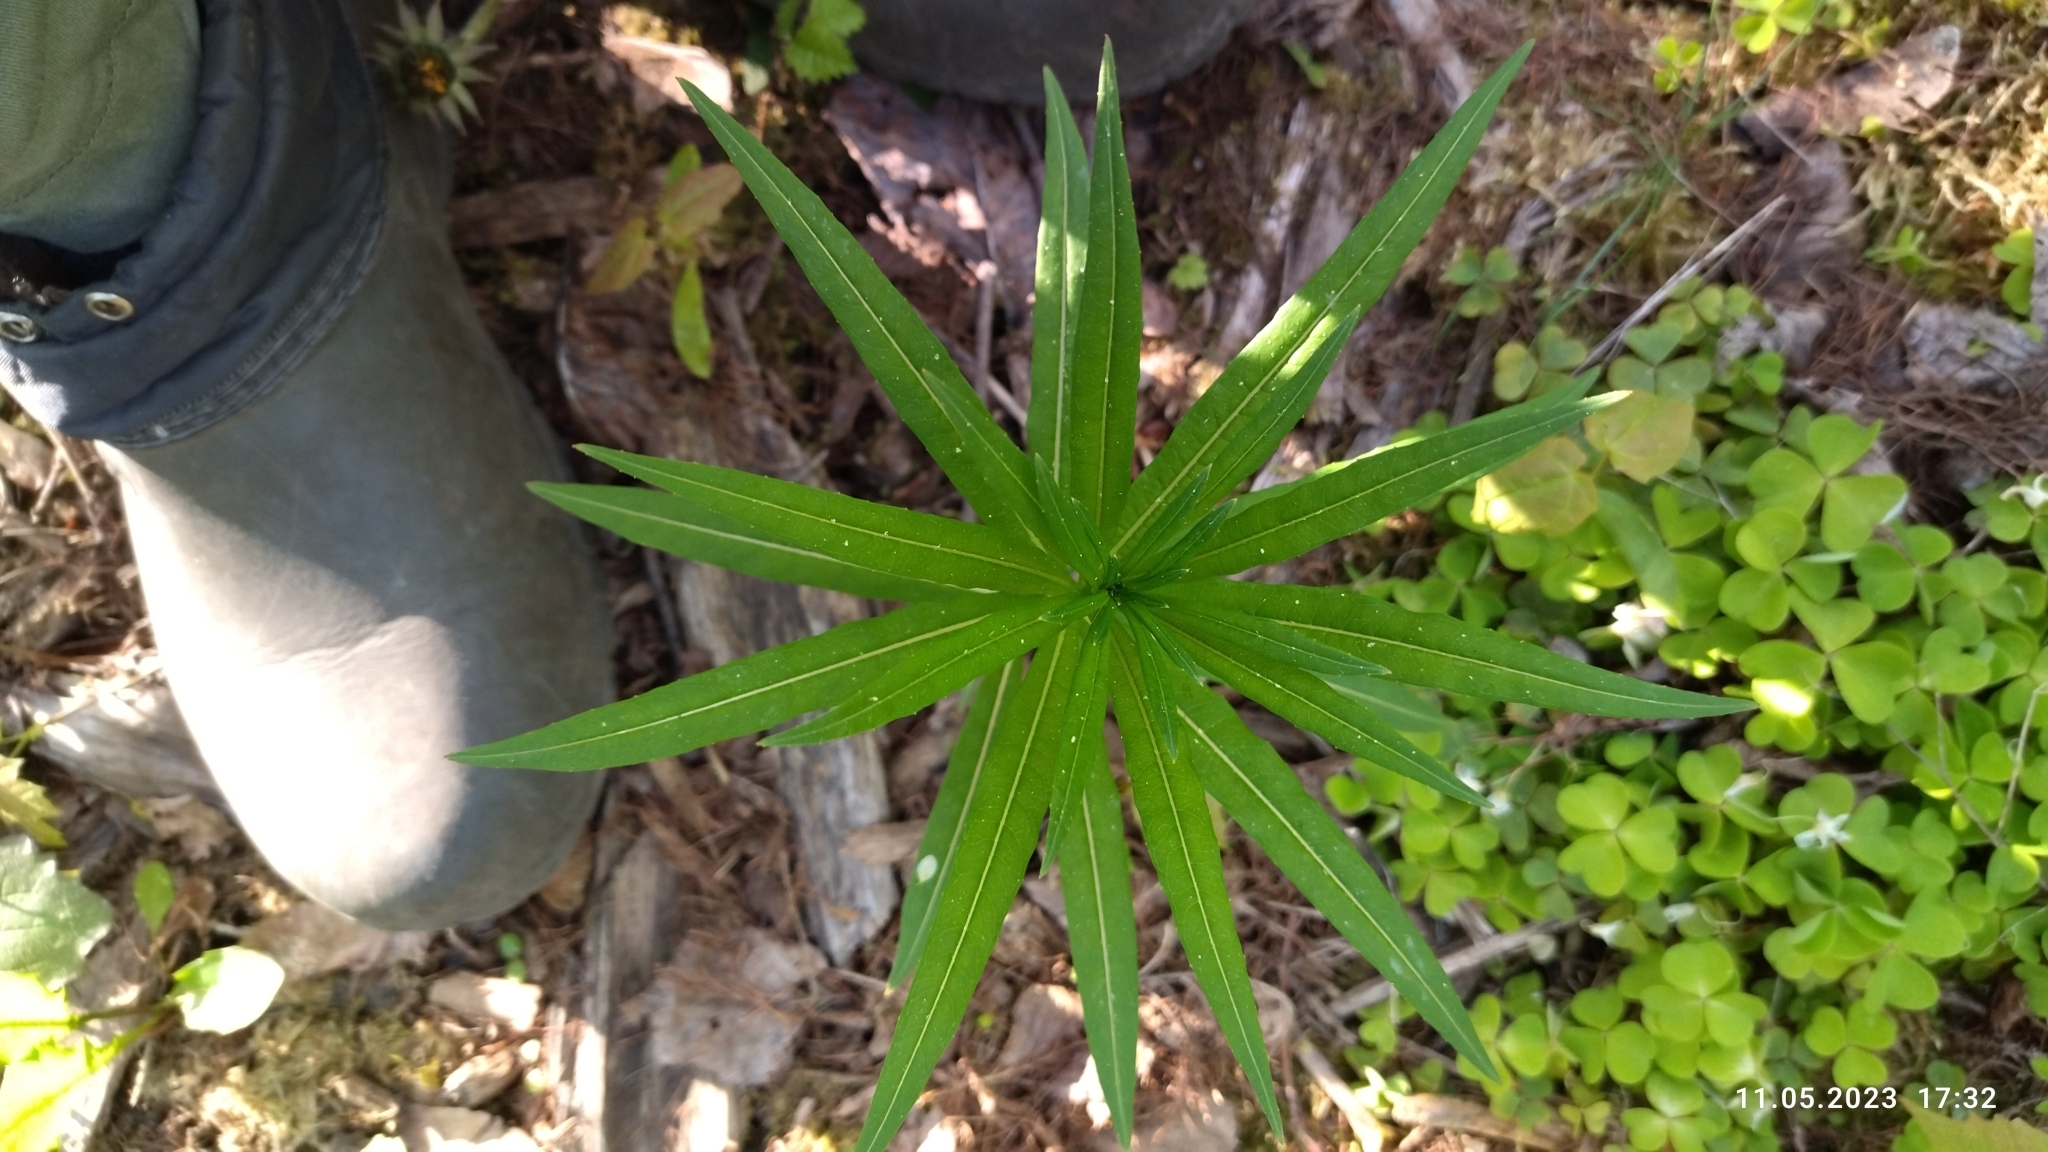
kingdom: Plantae
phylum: Tracheophyta
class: Magnoliopsida
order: Myrtales
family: Onagraceae
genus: Chamaenerion
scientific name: Chamaenerion angustifolium
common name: Fireweed
